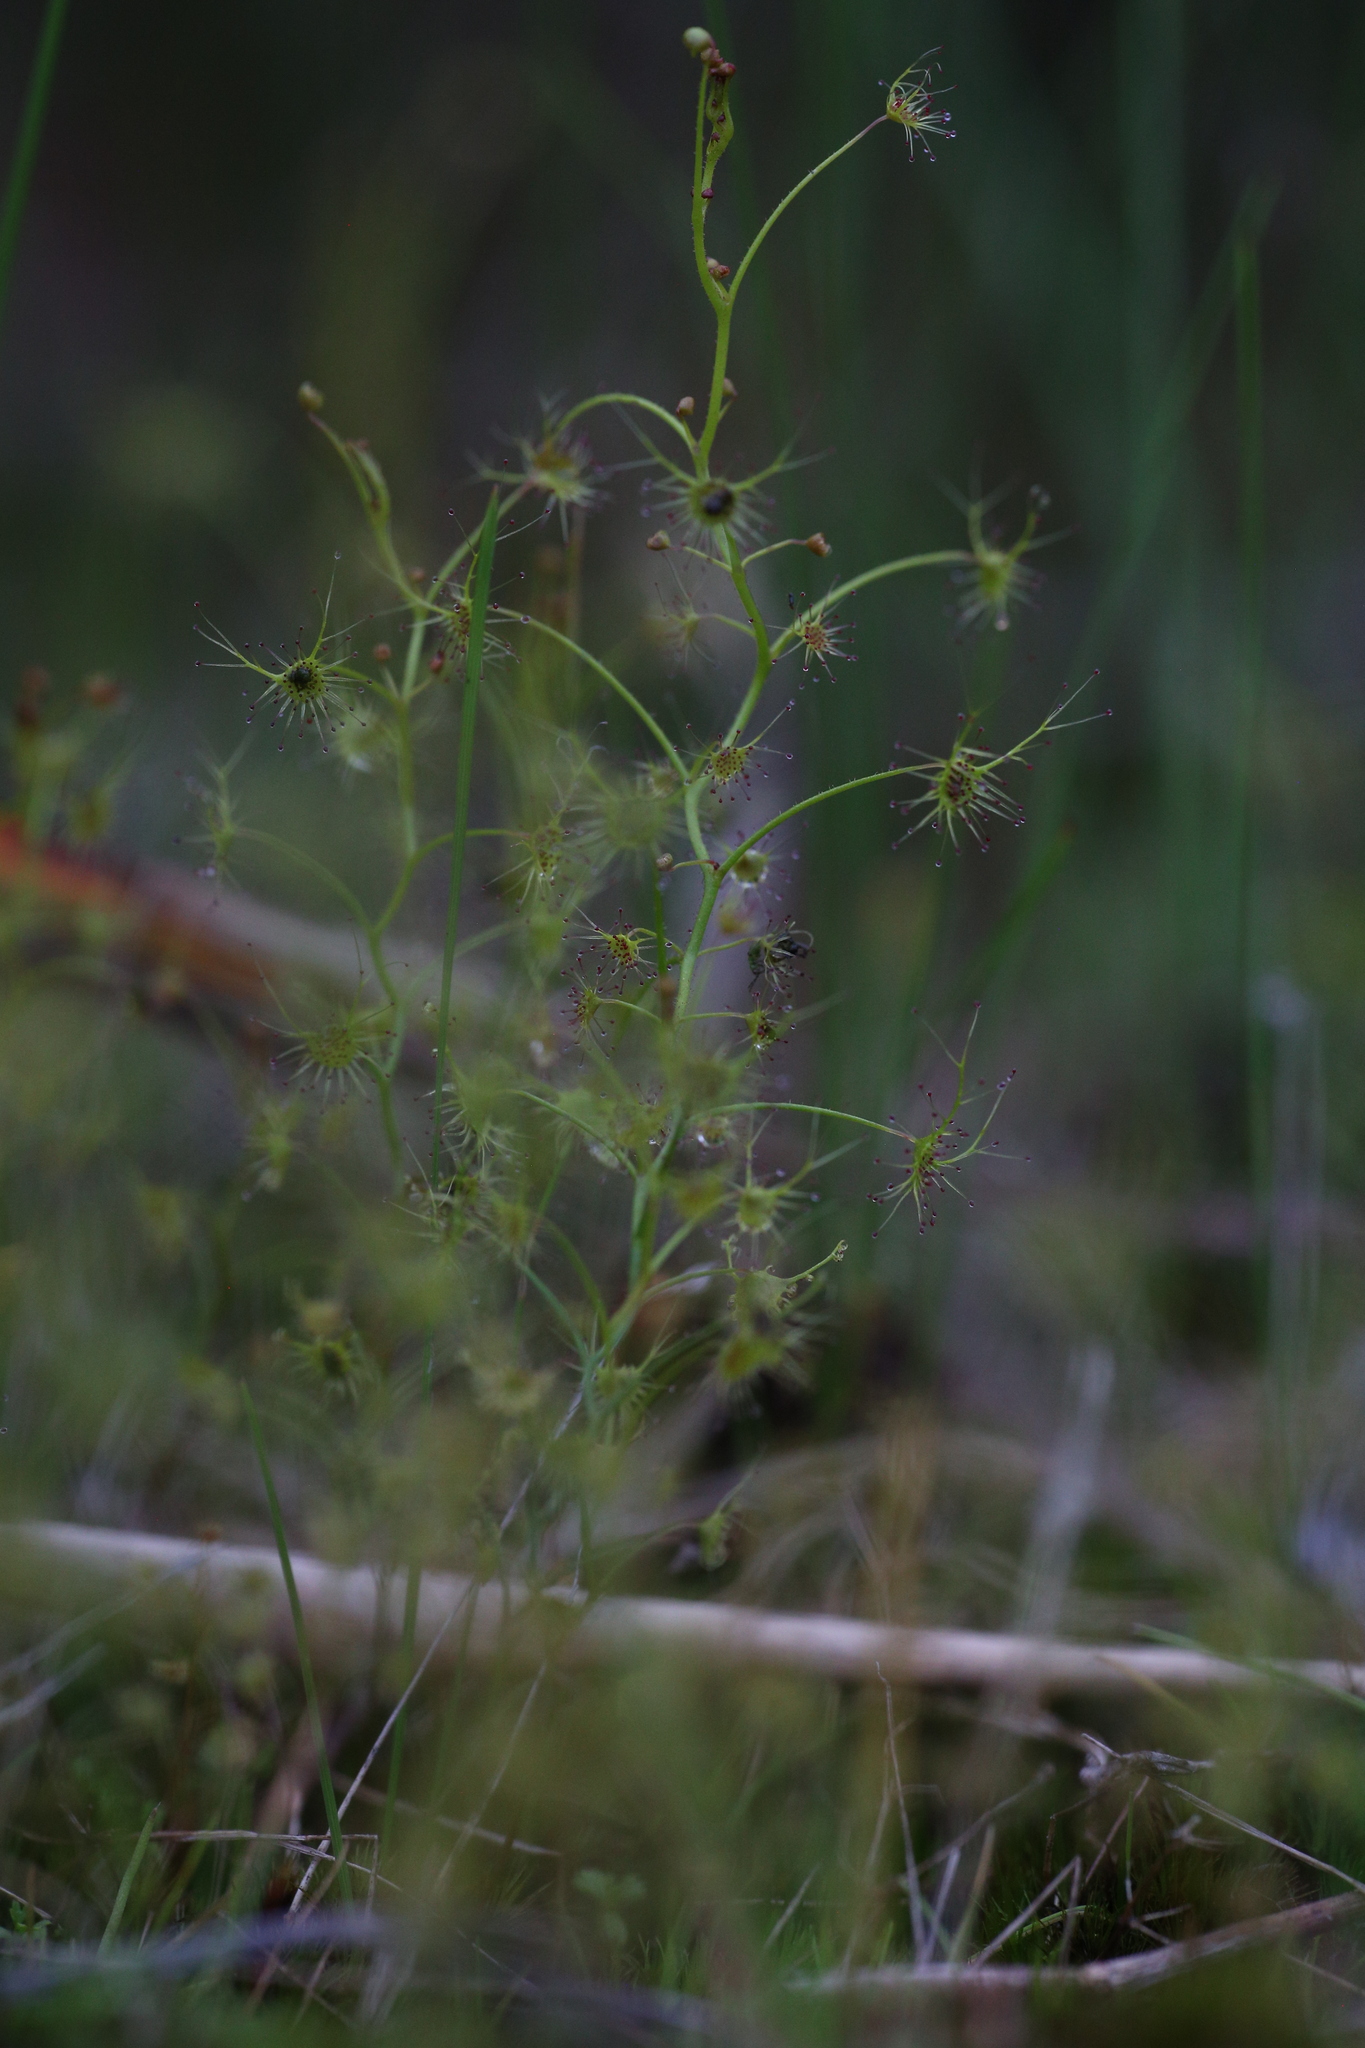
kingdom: Plantae
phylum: Tracheophyta
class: Magnoliopsida
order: Caryophyllales
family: Droseraceae
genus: Drosera
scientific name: Drosera modesta
